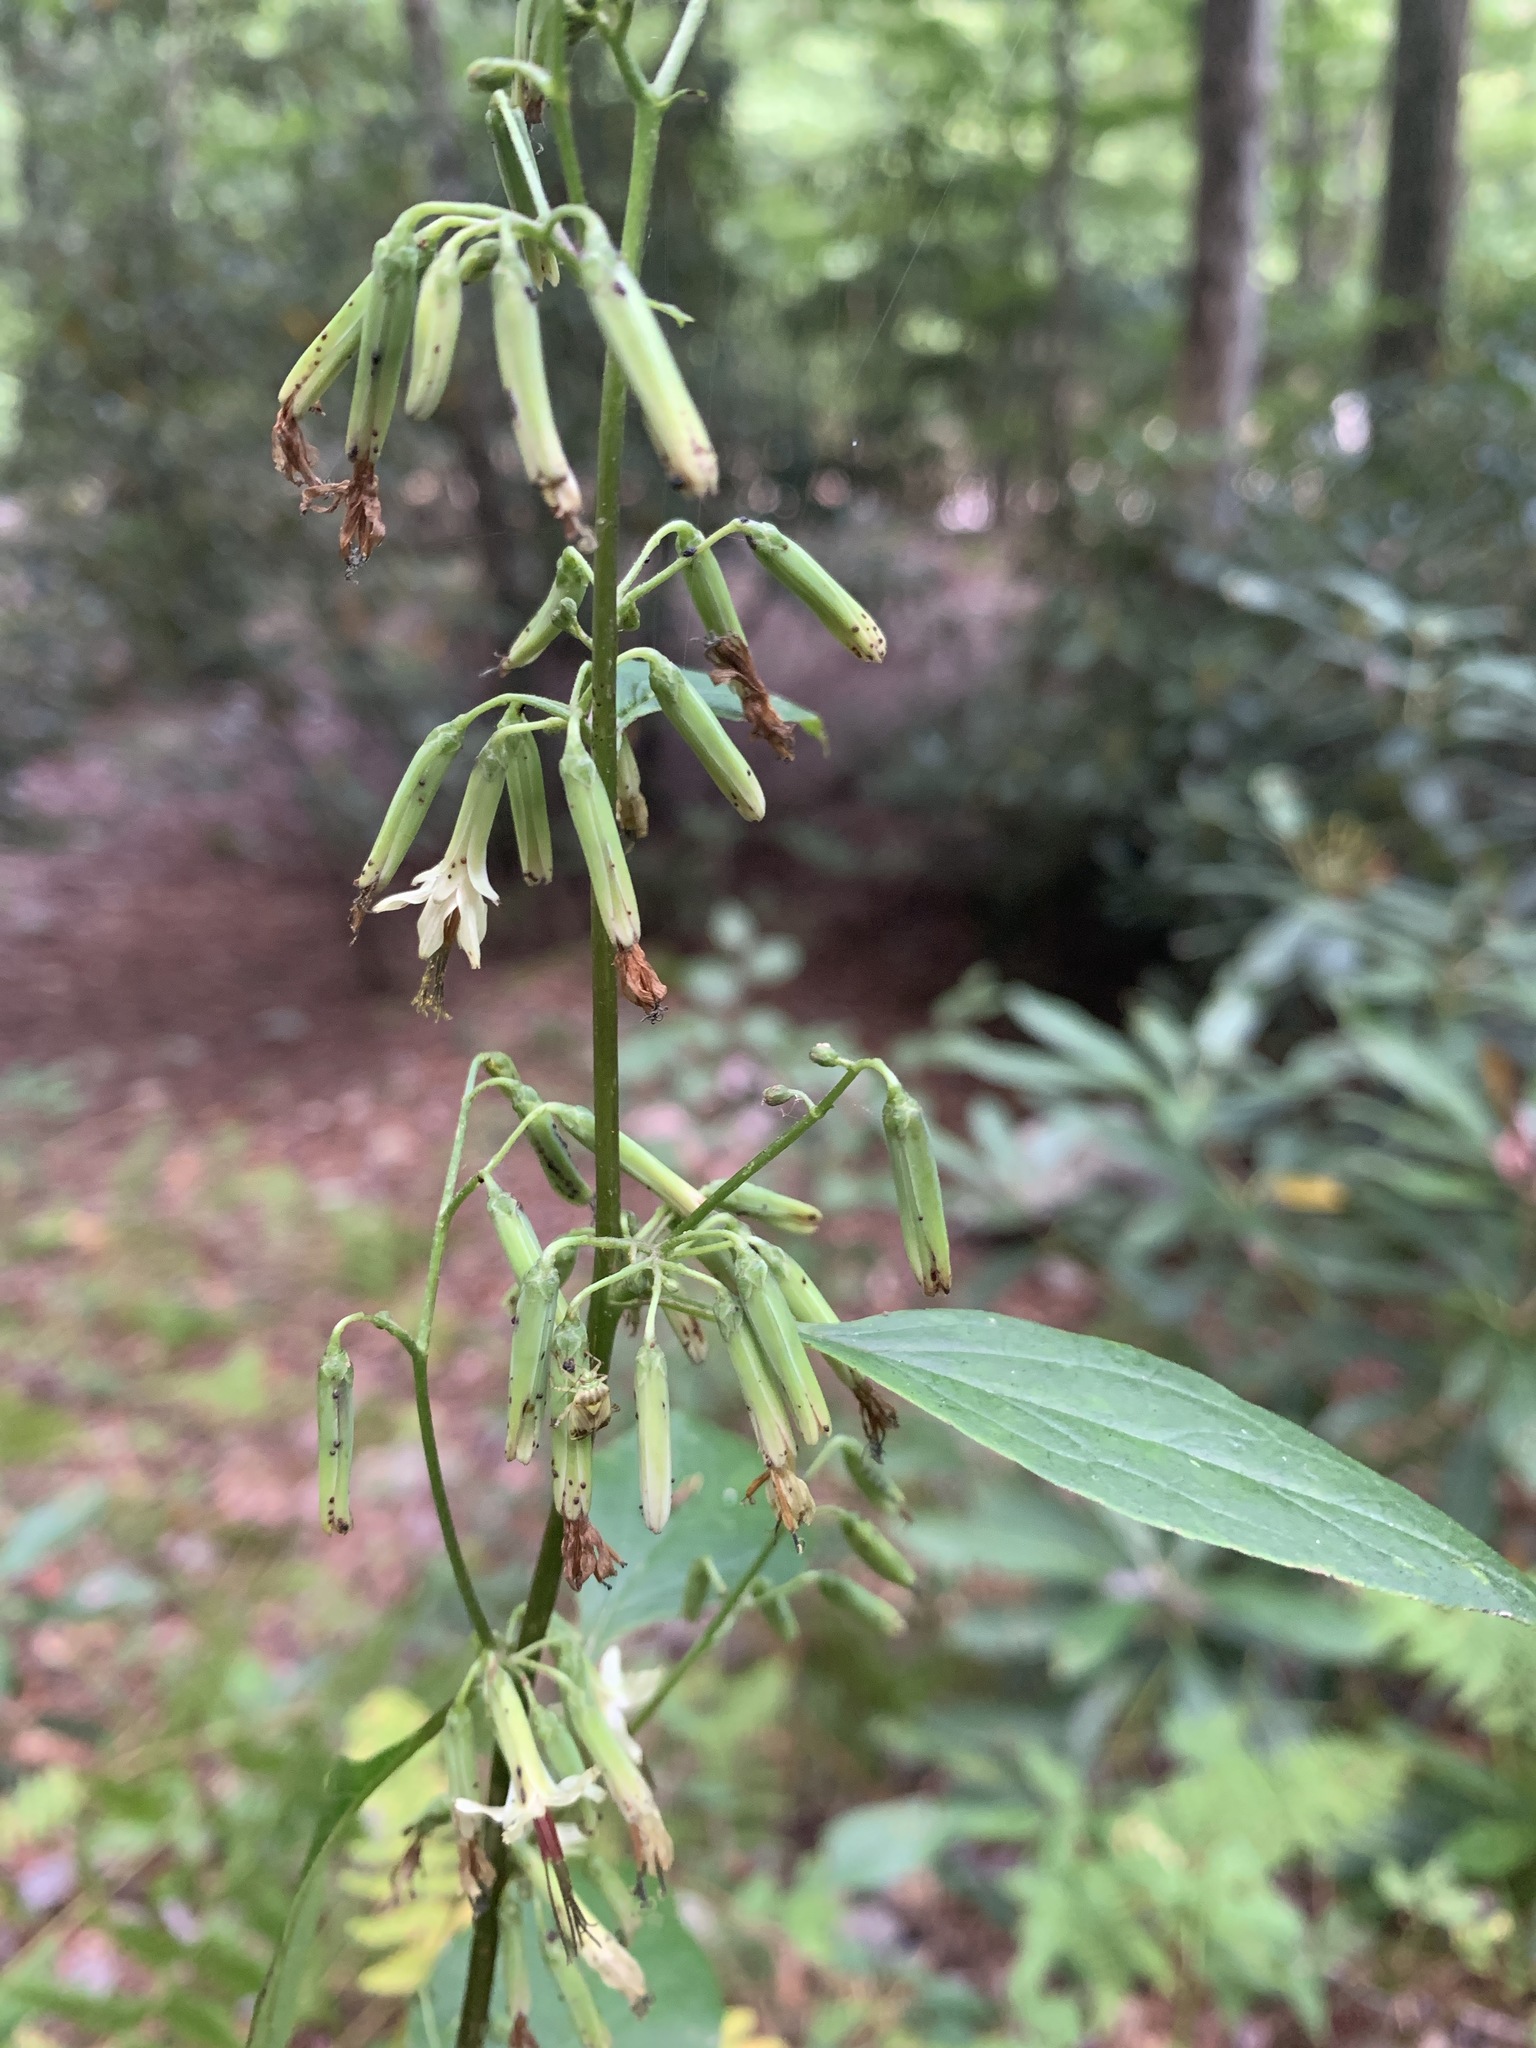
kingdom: Plantae
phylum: Tracheophyta
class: Magnoliopsida
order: Asterales
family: Asteraceae
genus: Nabalus
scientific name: Nabalus altissima
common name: Tall rattlesnakeroot
